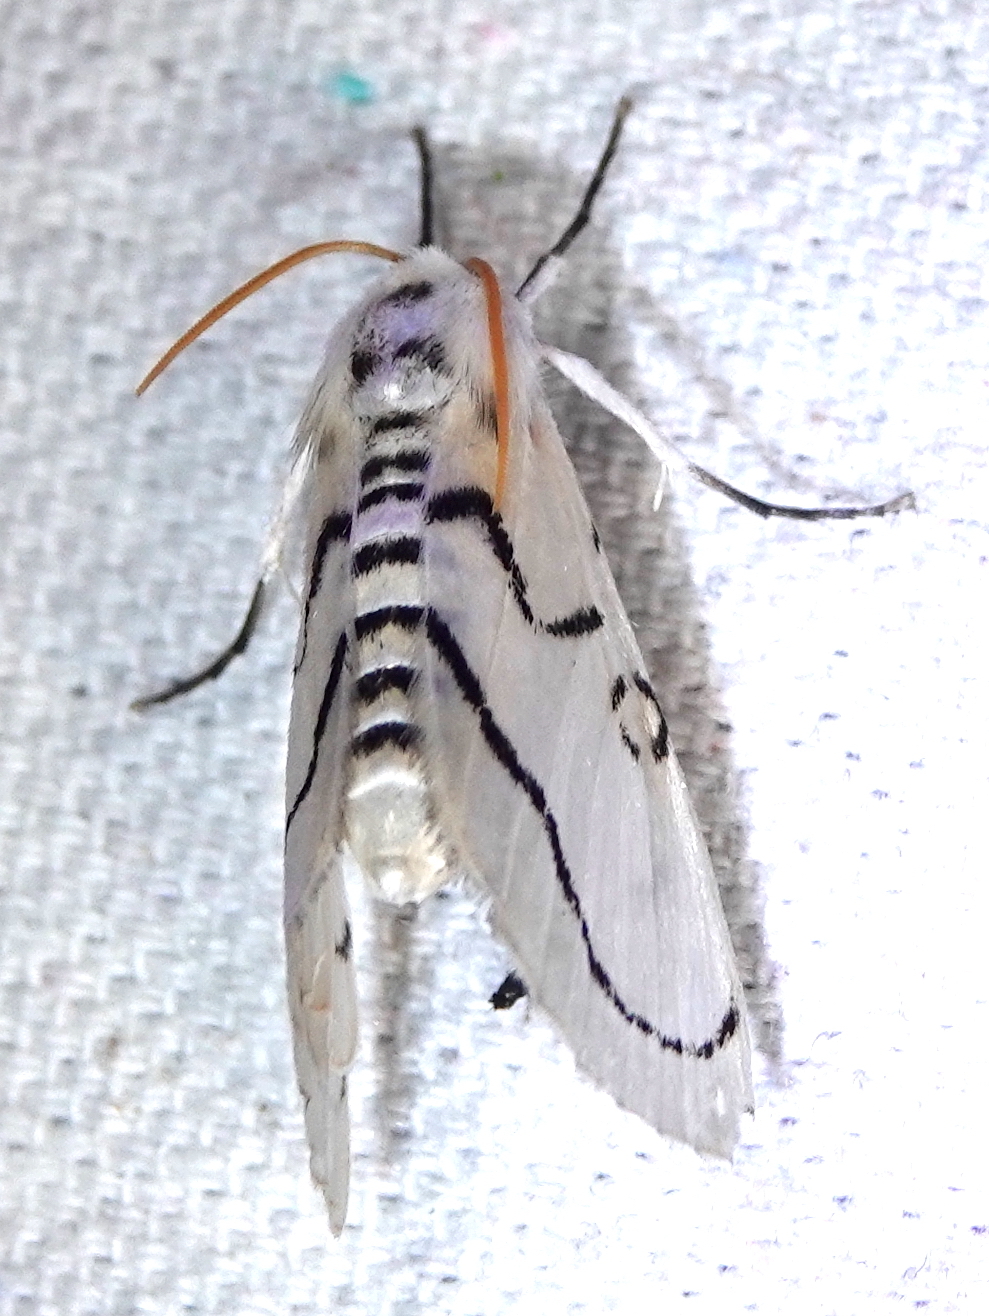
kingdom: Animalia
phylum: Arthropoda
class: Insecta
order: Lepidoptera
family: Crambidae
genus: Linosta
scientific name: Linosta
